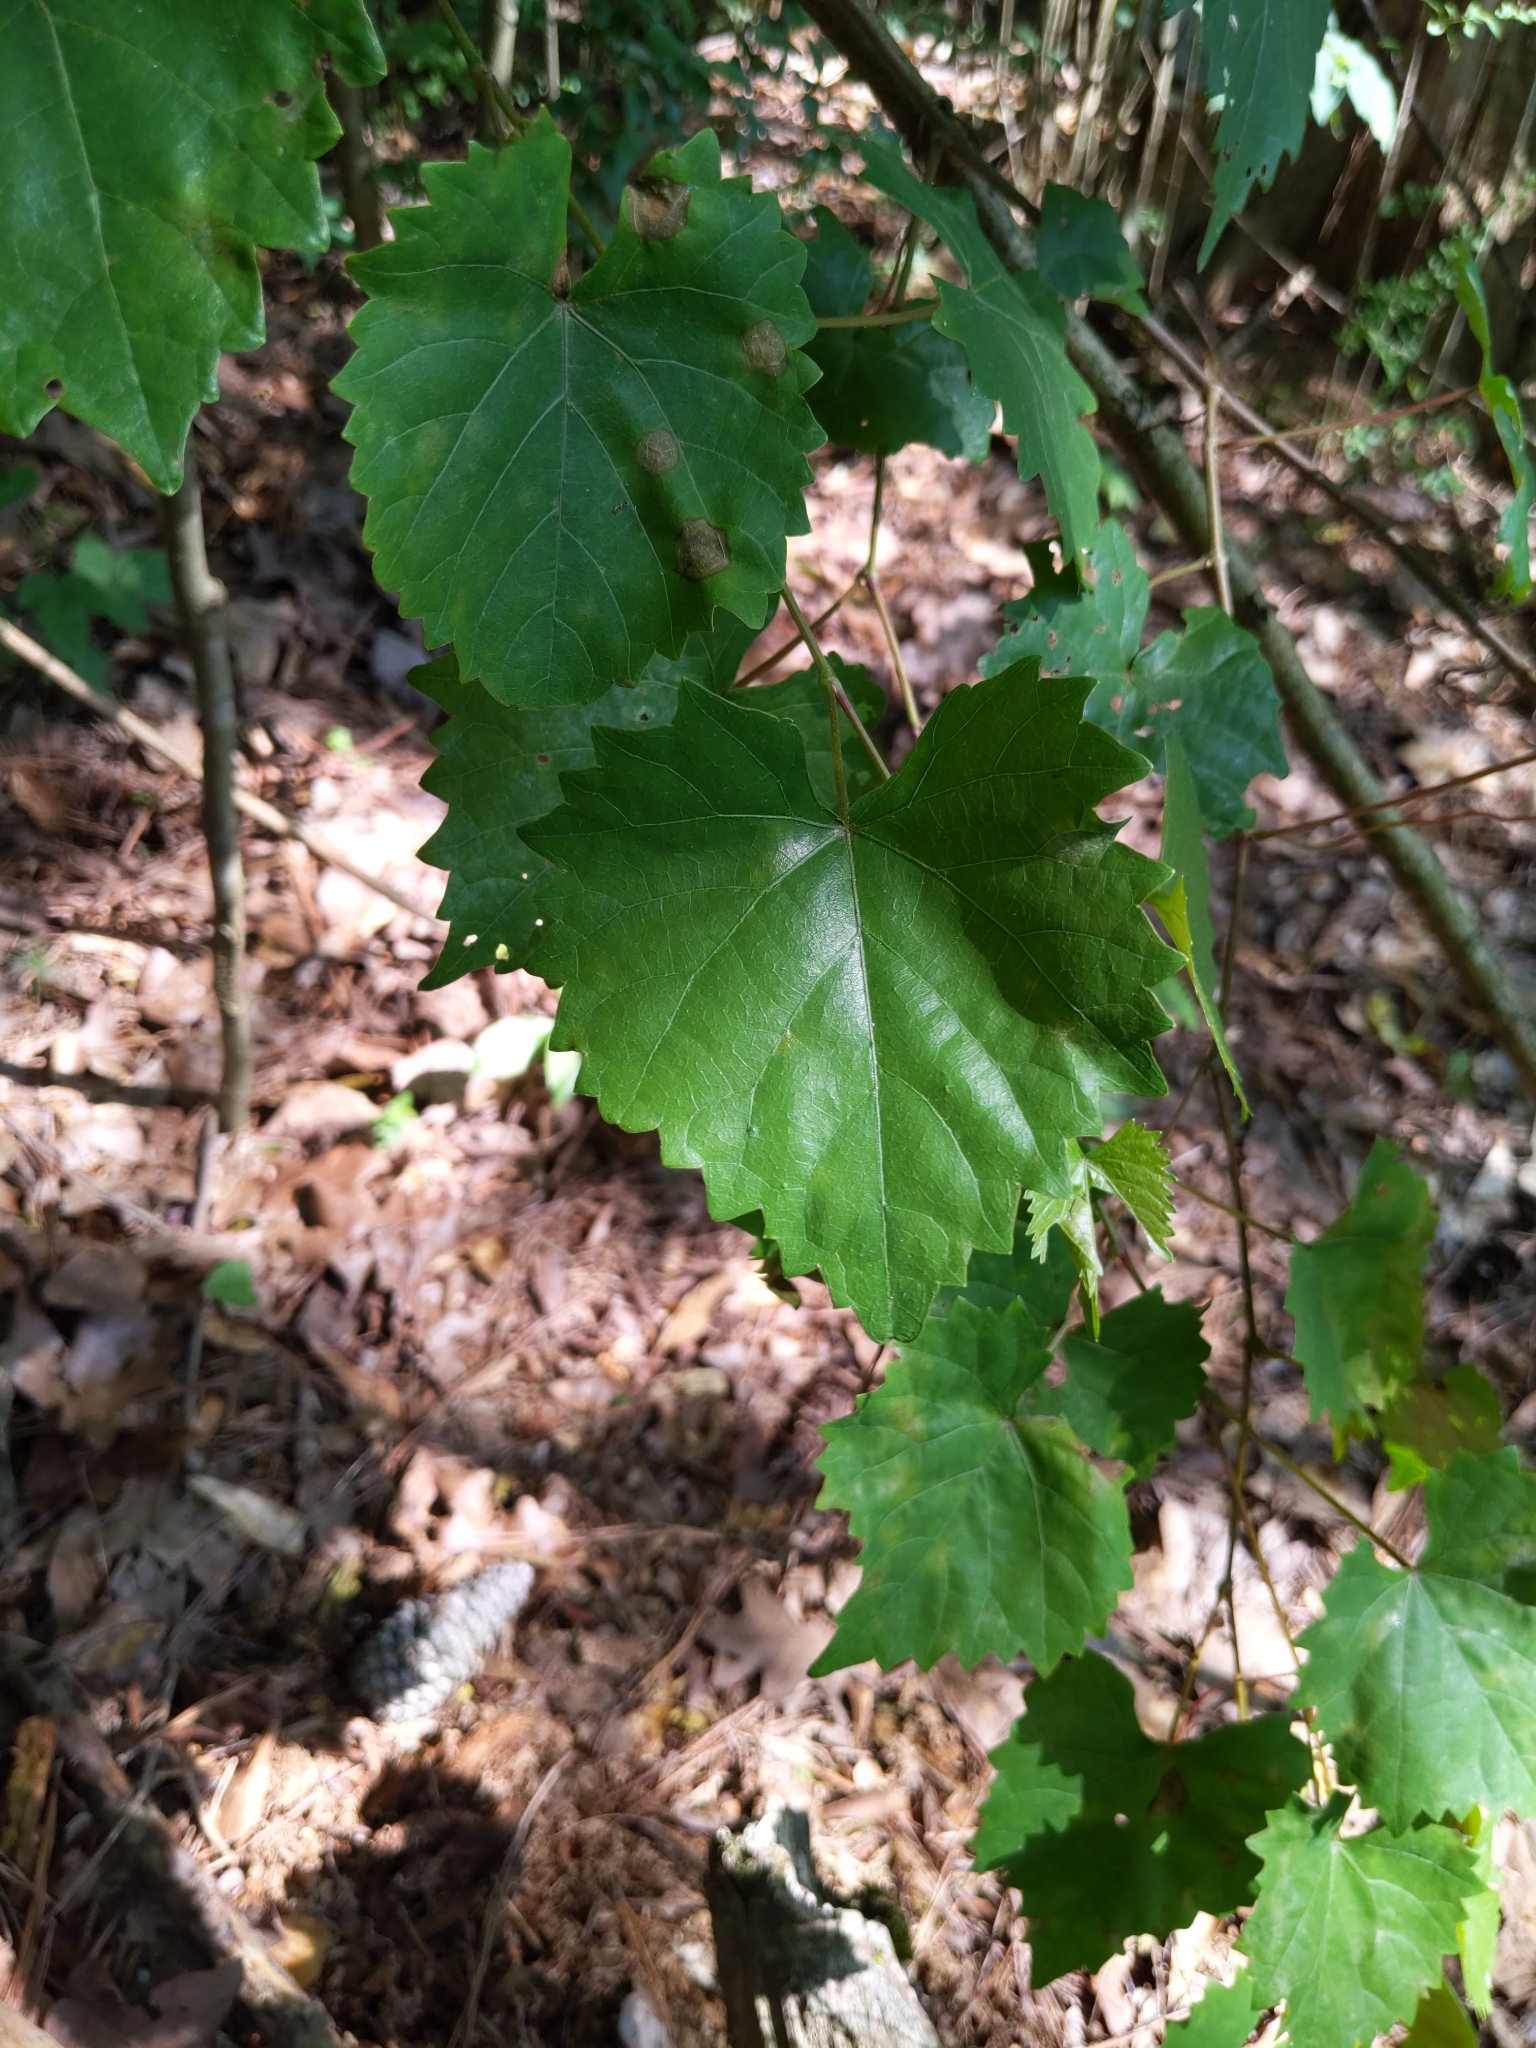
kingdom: Plantae
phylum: Tracheophyta
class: Magnoliopsida
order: Vitales
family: Vitaceae
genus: Vitis
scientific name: Vitis rotundifolia
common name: Muscadine grape
